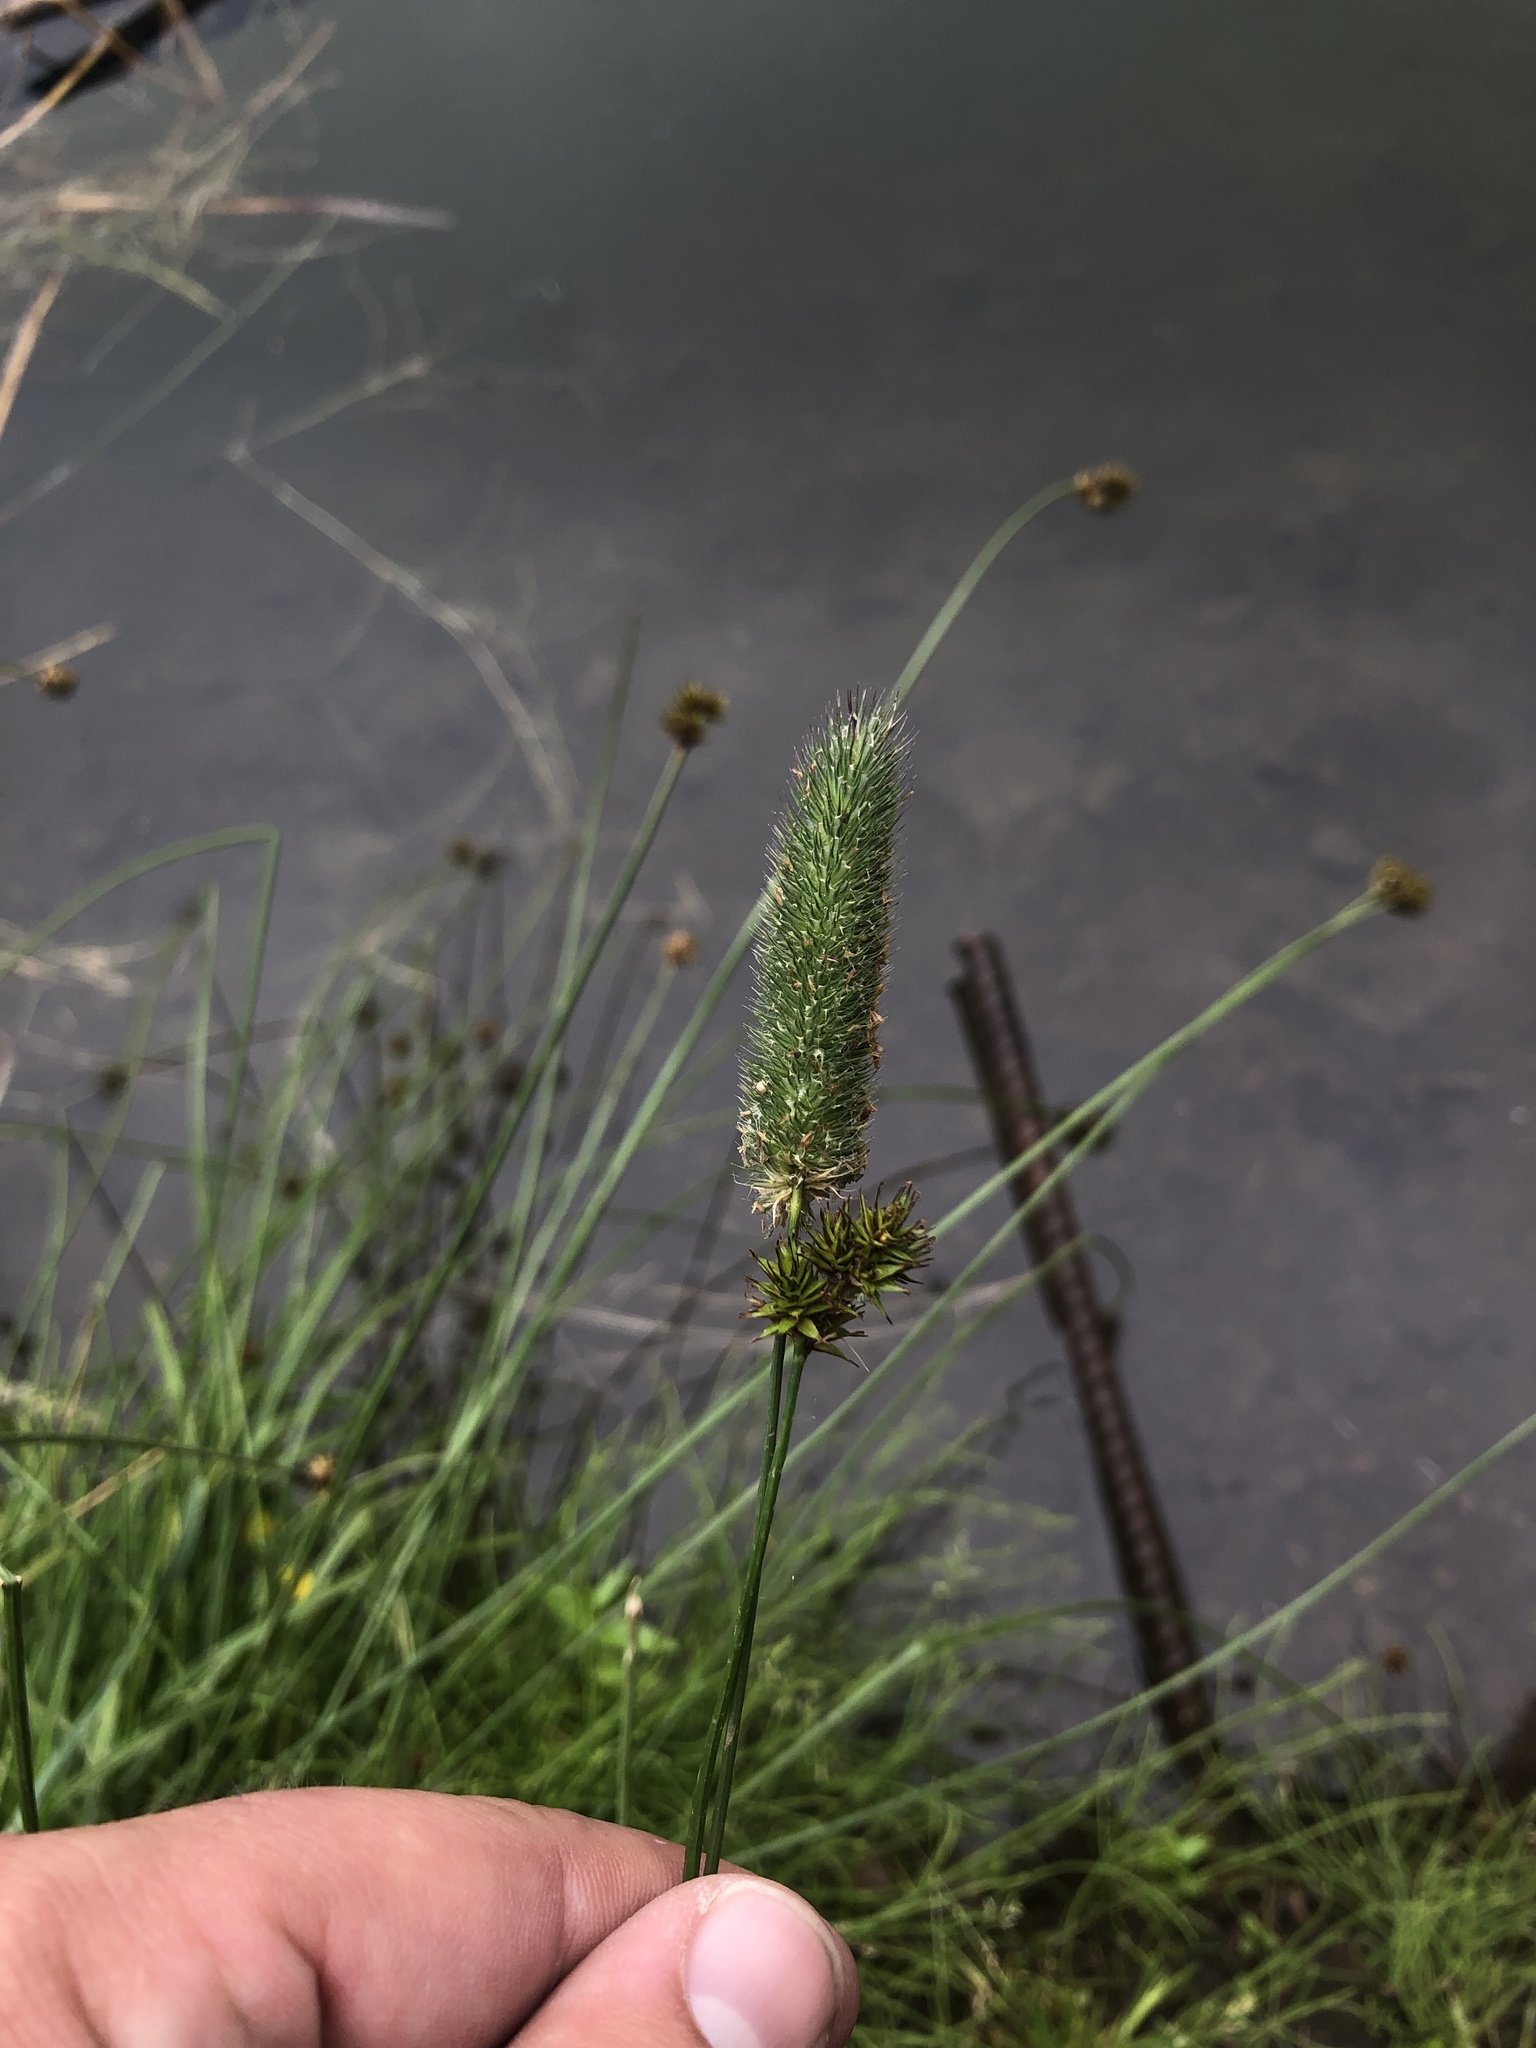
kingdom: Plantae
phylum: Tracheophyta
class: Liliopsida
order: Poales
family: Poaceae
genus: Phleum
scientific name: Phleum alpinum
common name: Alpine cat's-tail
